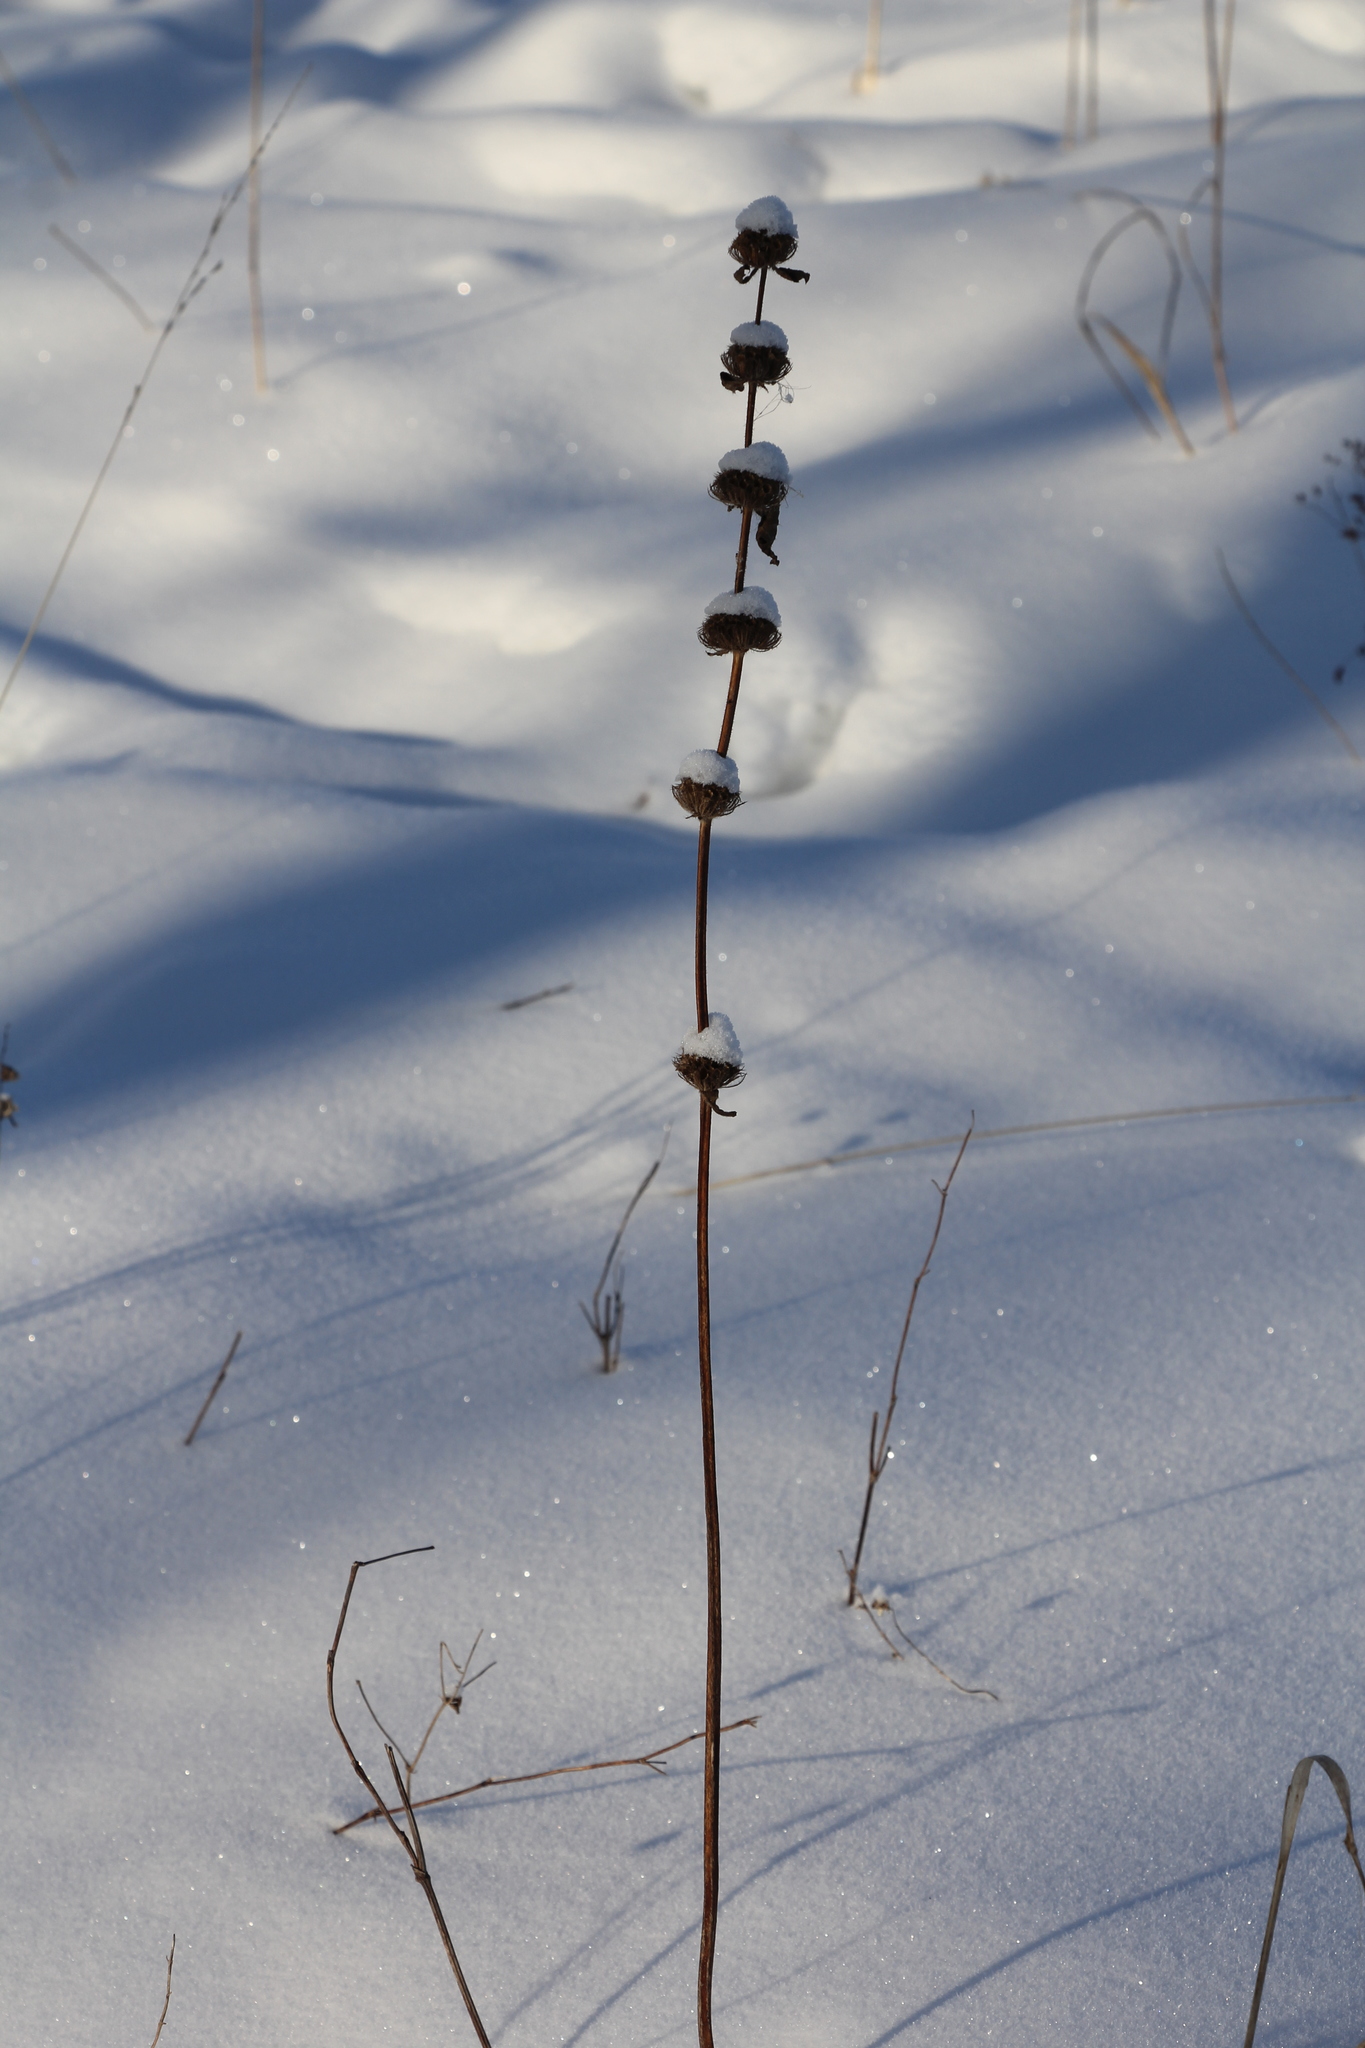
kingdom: Plantae
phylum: Tracheophyta
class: Magnoliopsida
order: Lamiales
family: Lamiaceae
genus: Phlomoides
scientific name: Phlomoides tuberosa
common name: Tuberous jerusalem sage
